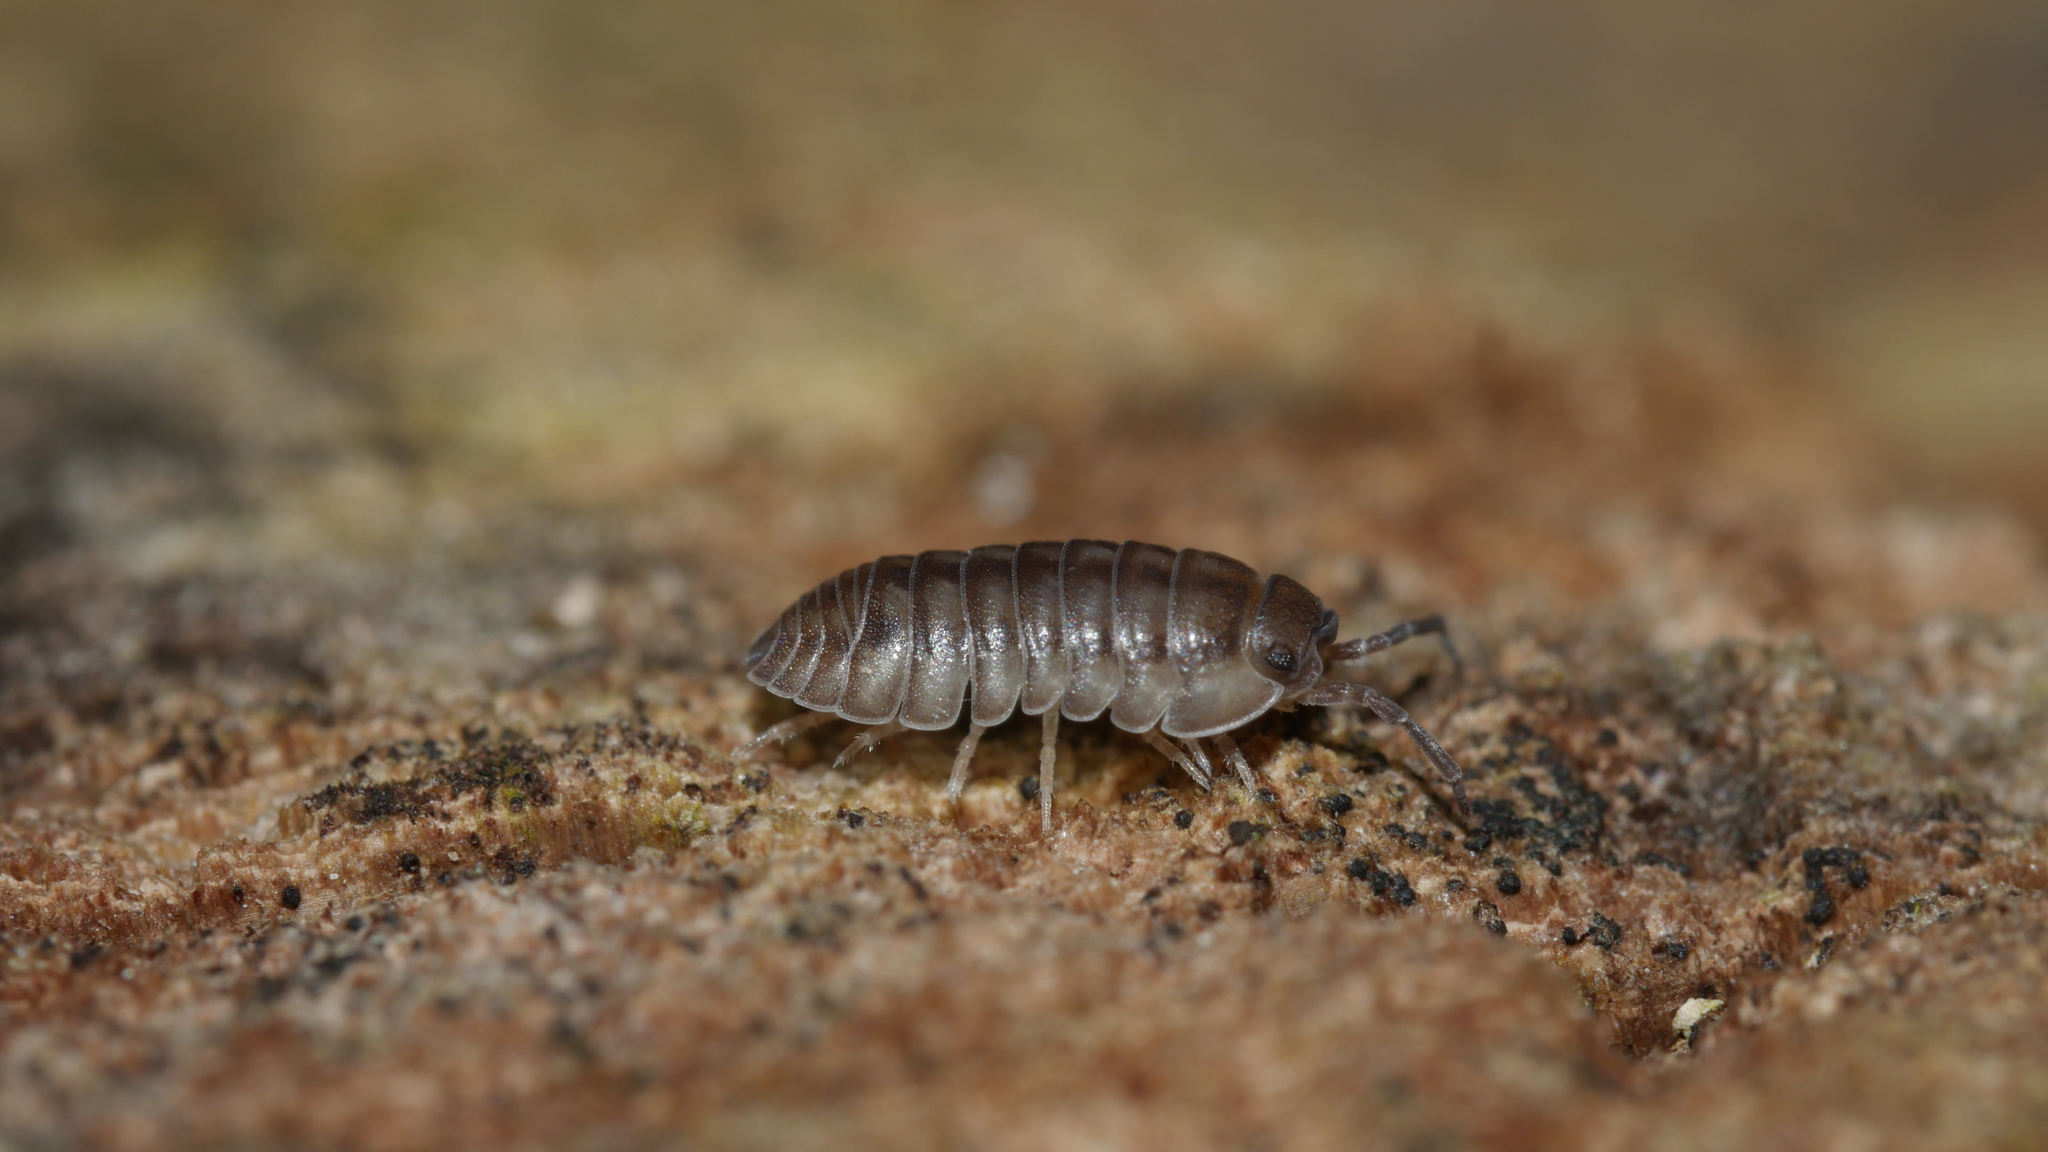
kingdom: Animalia
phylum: Arthropoda
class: Malacostraca
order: Isopoda
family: Armadillidiidae
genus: Armadillidium
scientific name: Armadillidium nasatum
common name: Isopod
